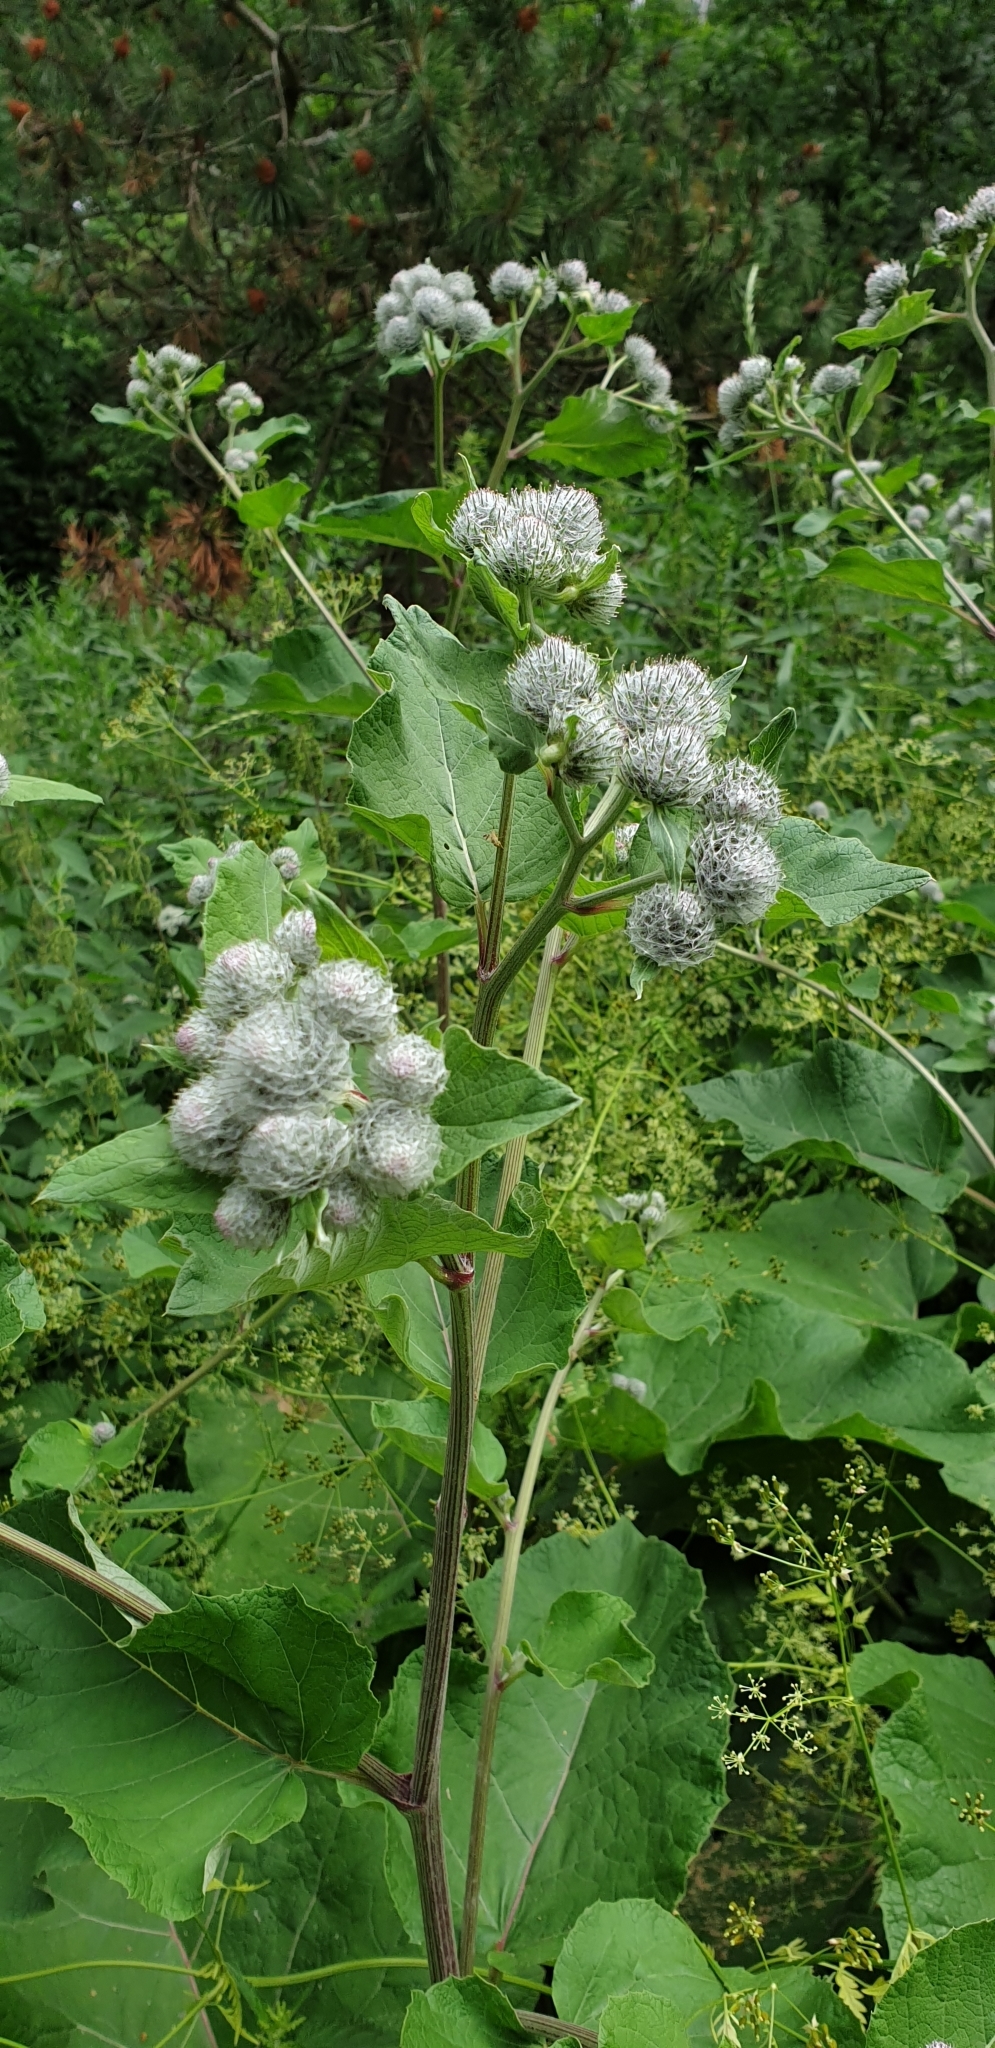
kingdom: Plantae
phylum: Tracheophyta
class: Magnoliopsida
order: Asterales
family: Asteraceae
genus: Arctium
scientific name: Arctium tomentosum
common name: Woolly burdock
